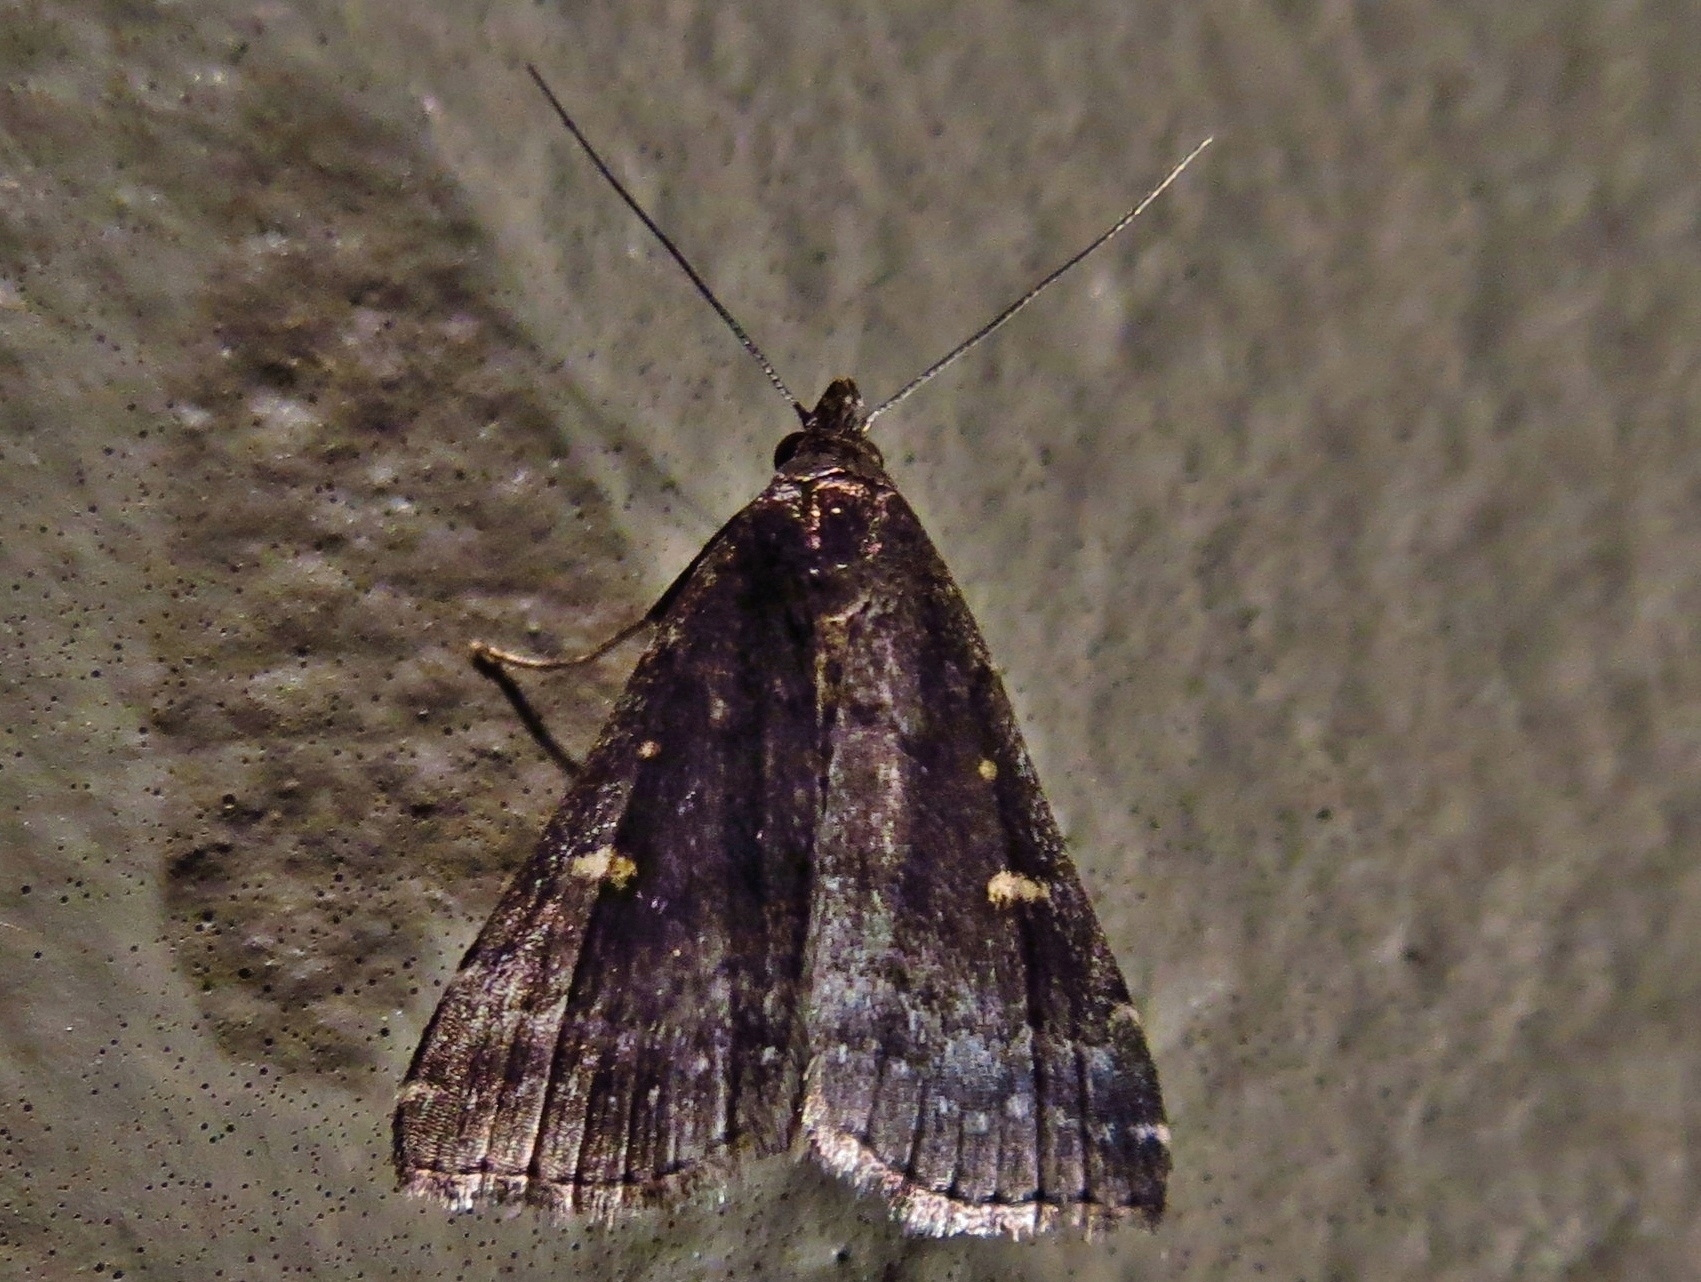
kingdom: Animalia
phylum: Arthropoda
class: Insecta
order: Lepidoptera
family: Erebidae
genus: Tetanolita
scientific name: Tetanolita mynesalis
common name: Smoky tetanolita moth
